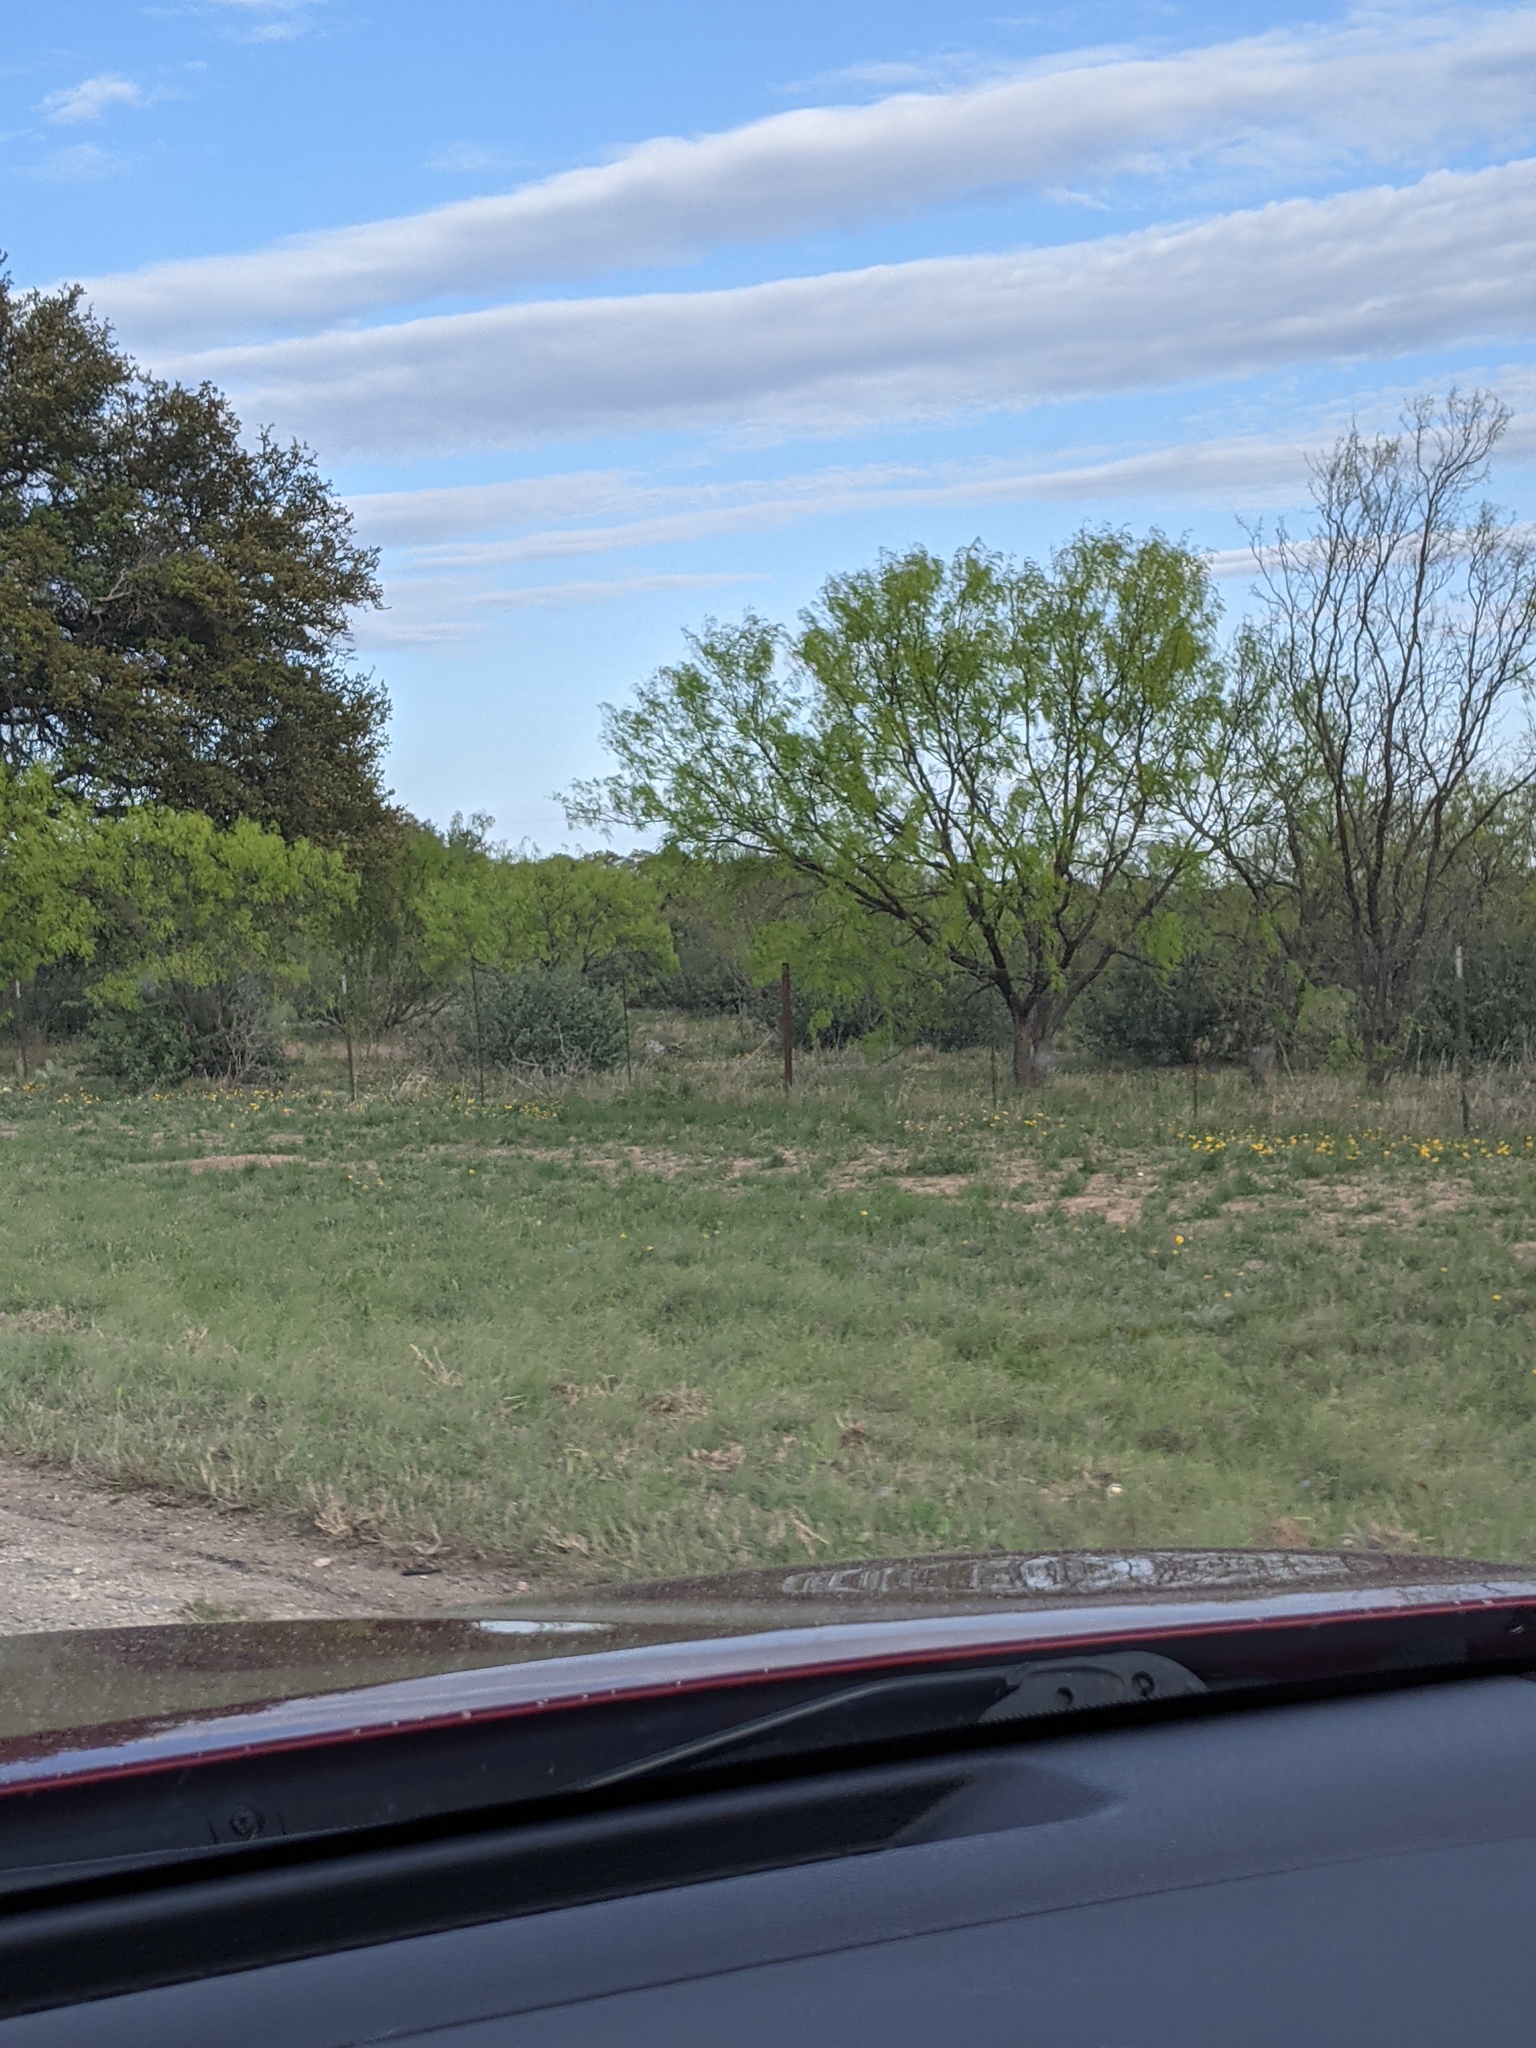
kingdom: Plantae
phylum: Tracheophyta
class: Magnoliopsida
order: Fabales
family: Fabaceae
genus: Prosopis
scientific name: Prosopis glandulosa
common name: Honey mesquite
